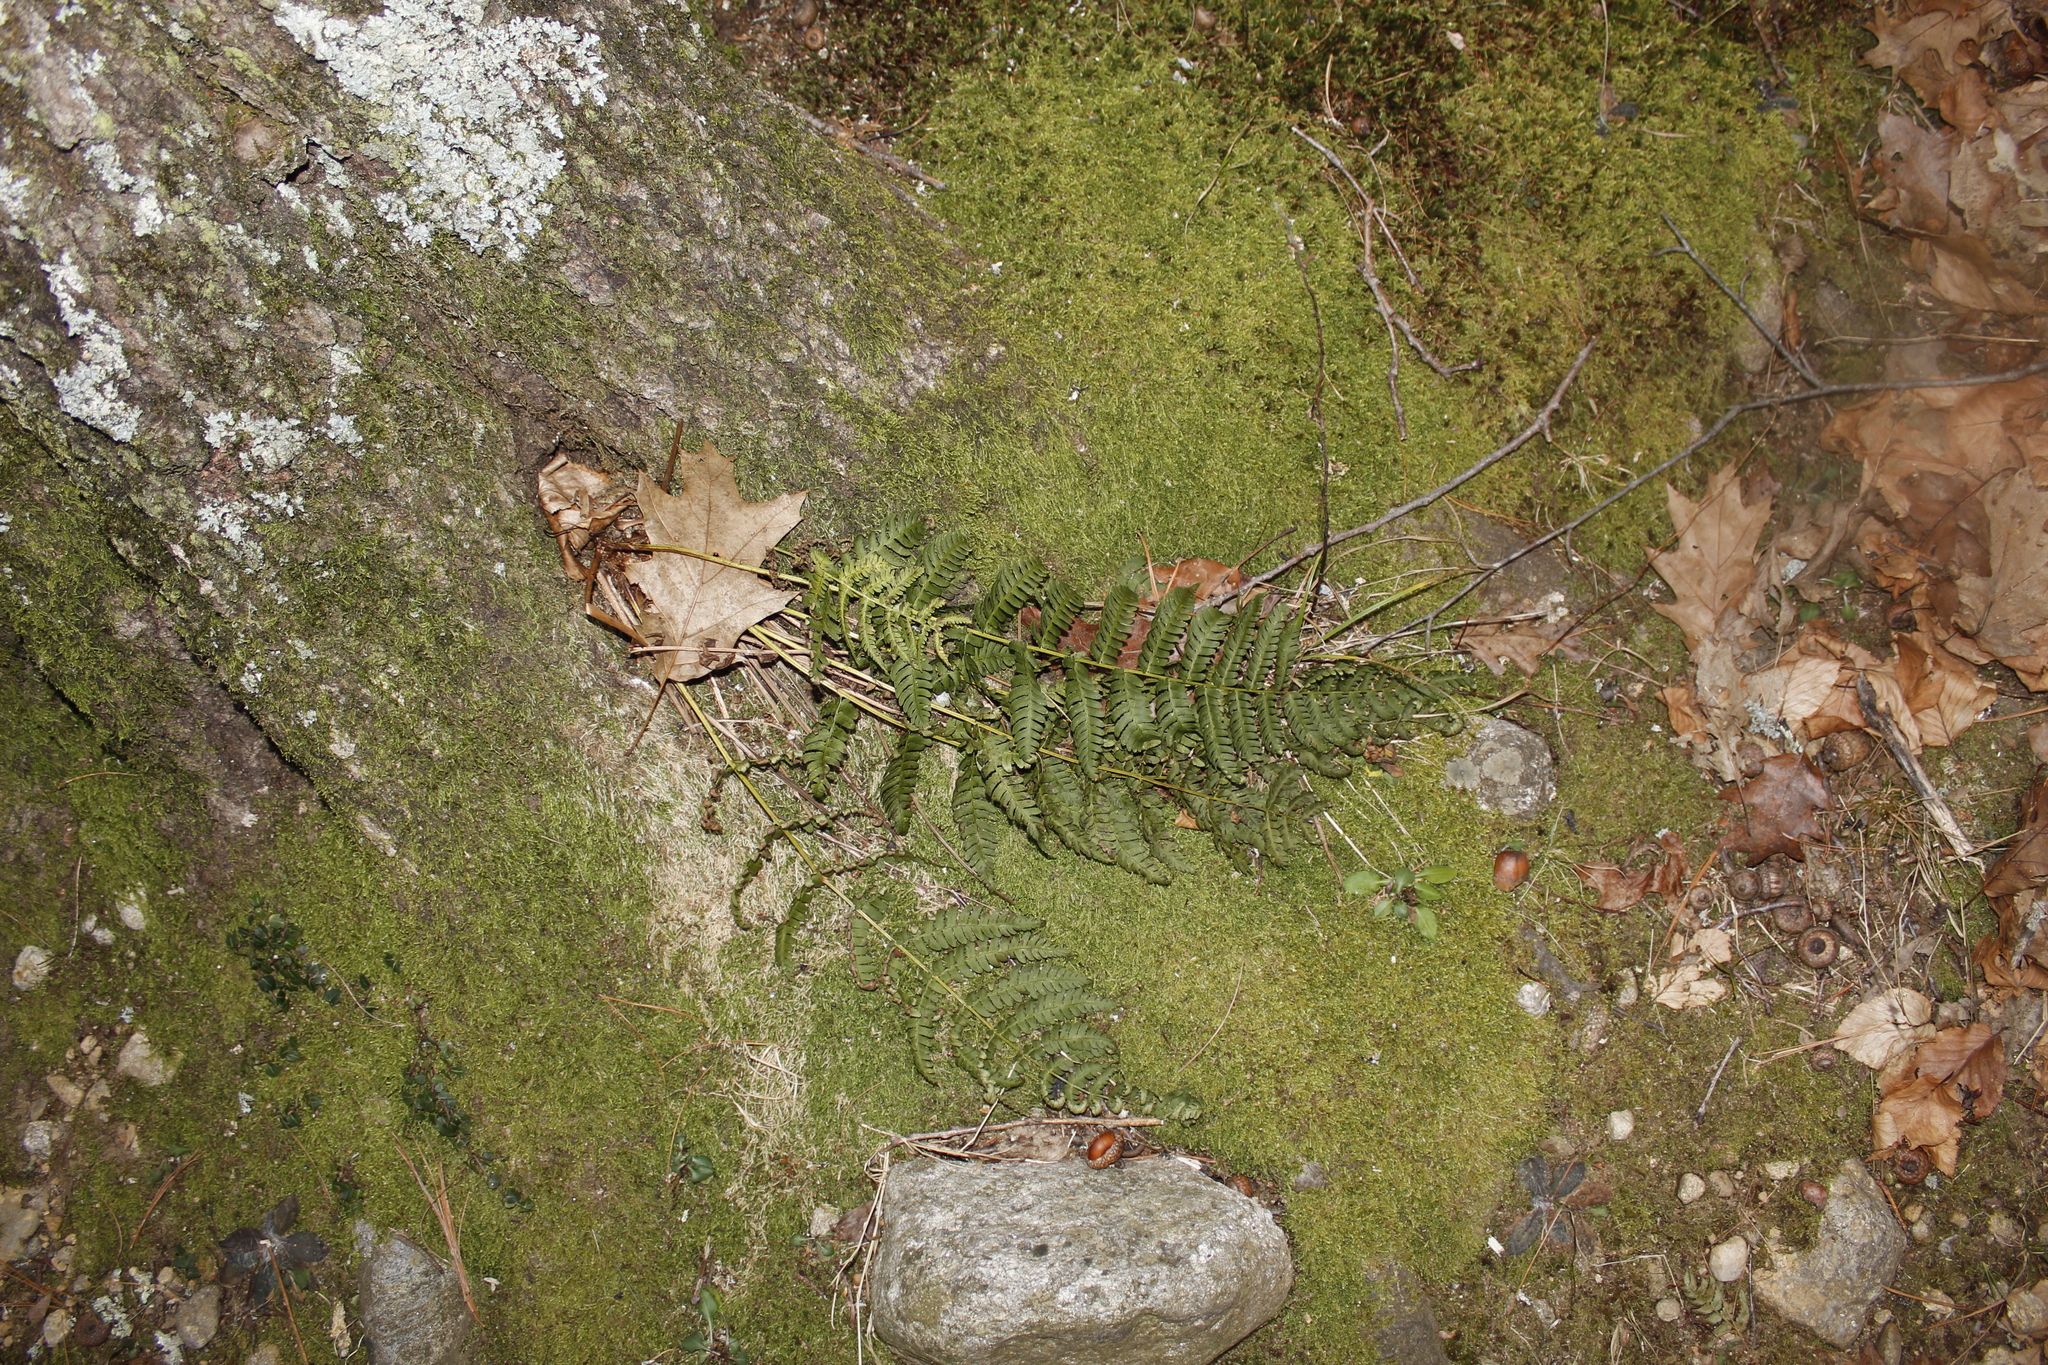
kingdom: Plantae
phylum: Tracheophyta
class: Polypodiopsida
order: Polypodiales
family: Dryopteridaceae
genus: Dryopteris
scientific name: Dryopteris marginalis
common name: Marginal wood fern
